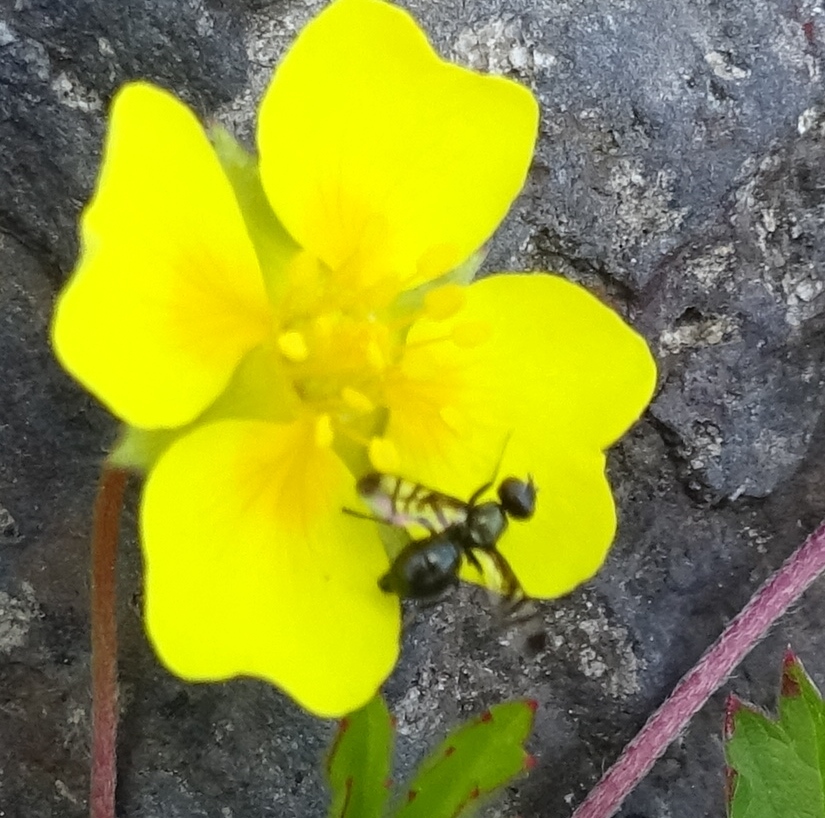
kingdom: Animalia
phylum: Arthropoda
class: Insecta
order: Diptera
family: Platystomatidae
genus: Rivellia
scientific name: Rivellia syngenesiae
